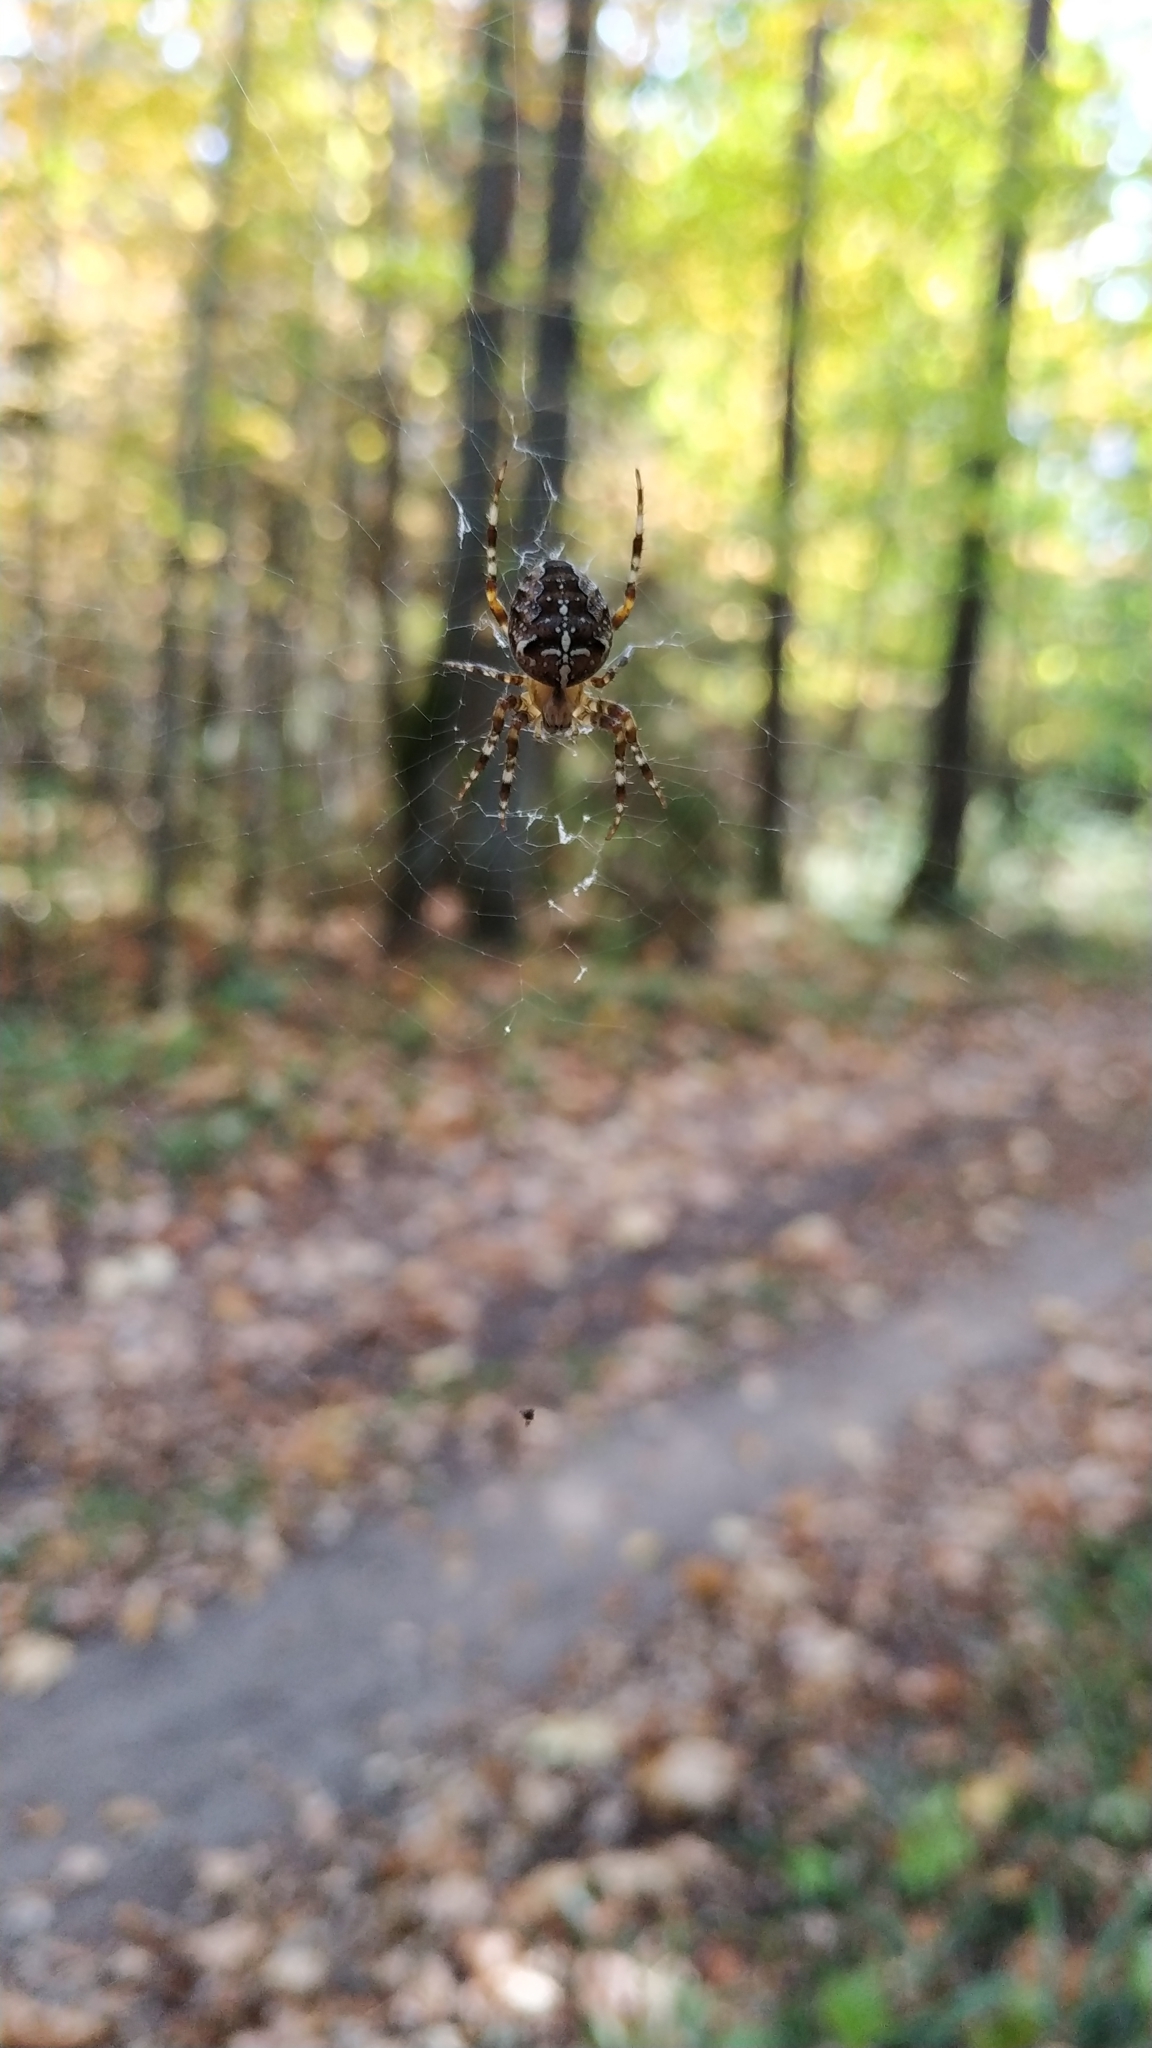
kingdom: Animalia
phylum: Arthropoda
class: Arachnida
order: Araneae
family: Araneidae
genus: Araneus
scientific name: Araneus diadematus
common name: Cross orbweaver
